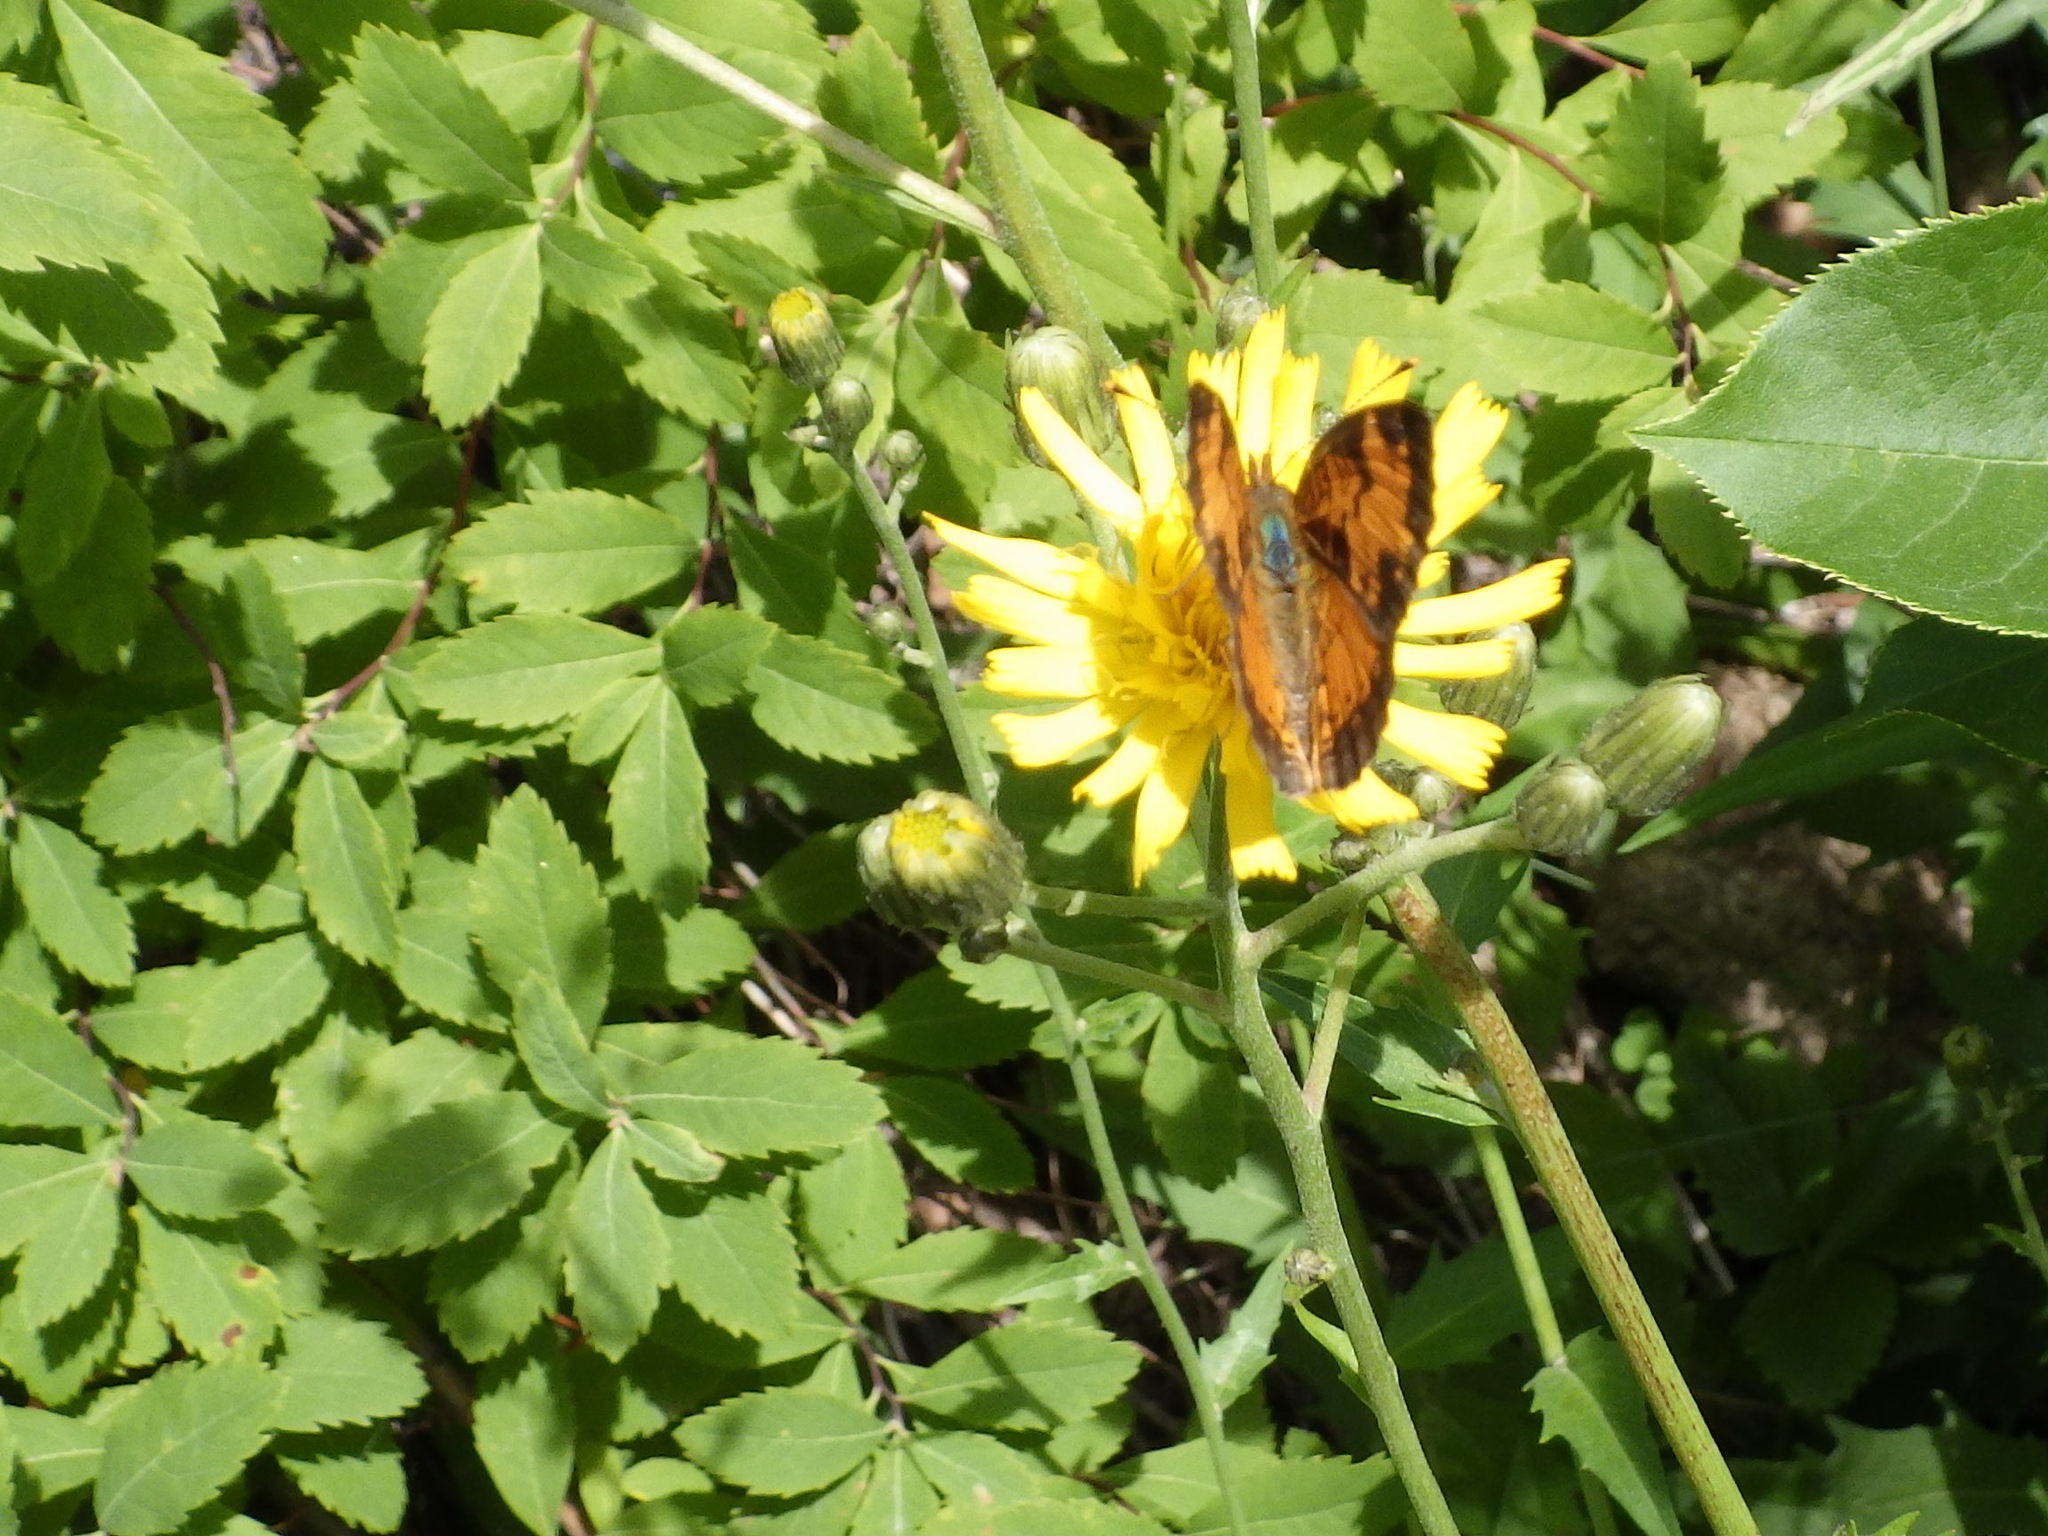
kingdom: Animalia
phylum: Arthropoda
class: Insecta
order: Lepidoptera
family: Nymphalidae
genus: Phyciodes
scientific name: Phyciodes tharos
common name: Pearl crescent
